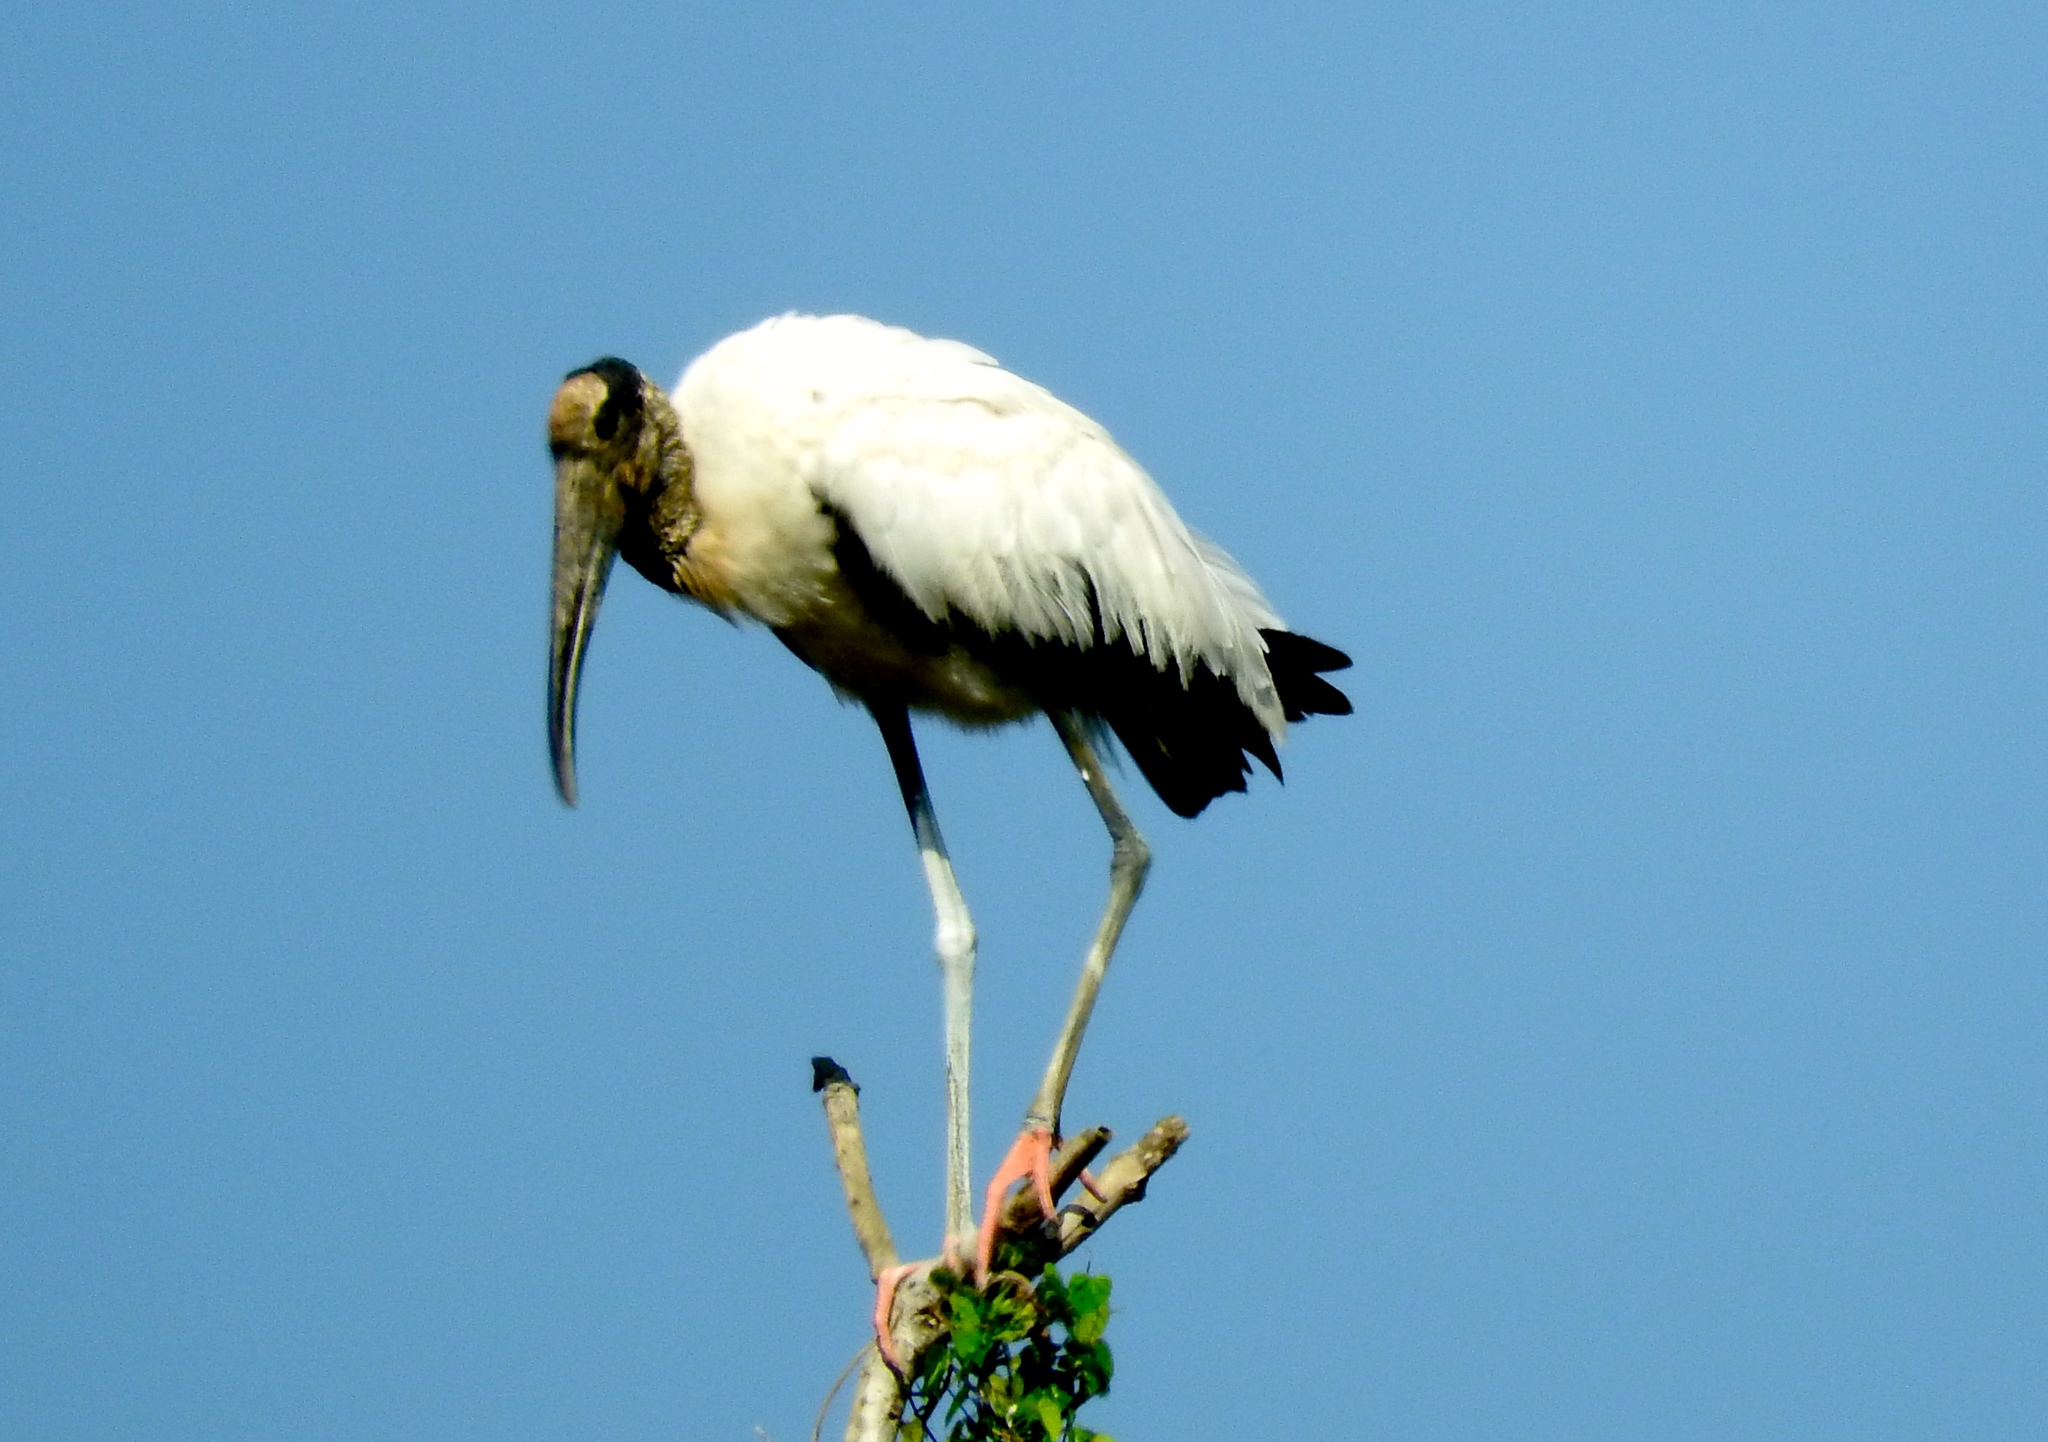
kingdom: Animalia
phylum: Chordata
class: Aves
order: Ciconiiformes
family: Ciconiidae
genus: Mycteria
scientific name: Mycteria americana
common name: Wood stork
